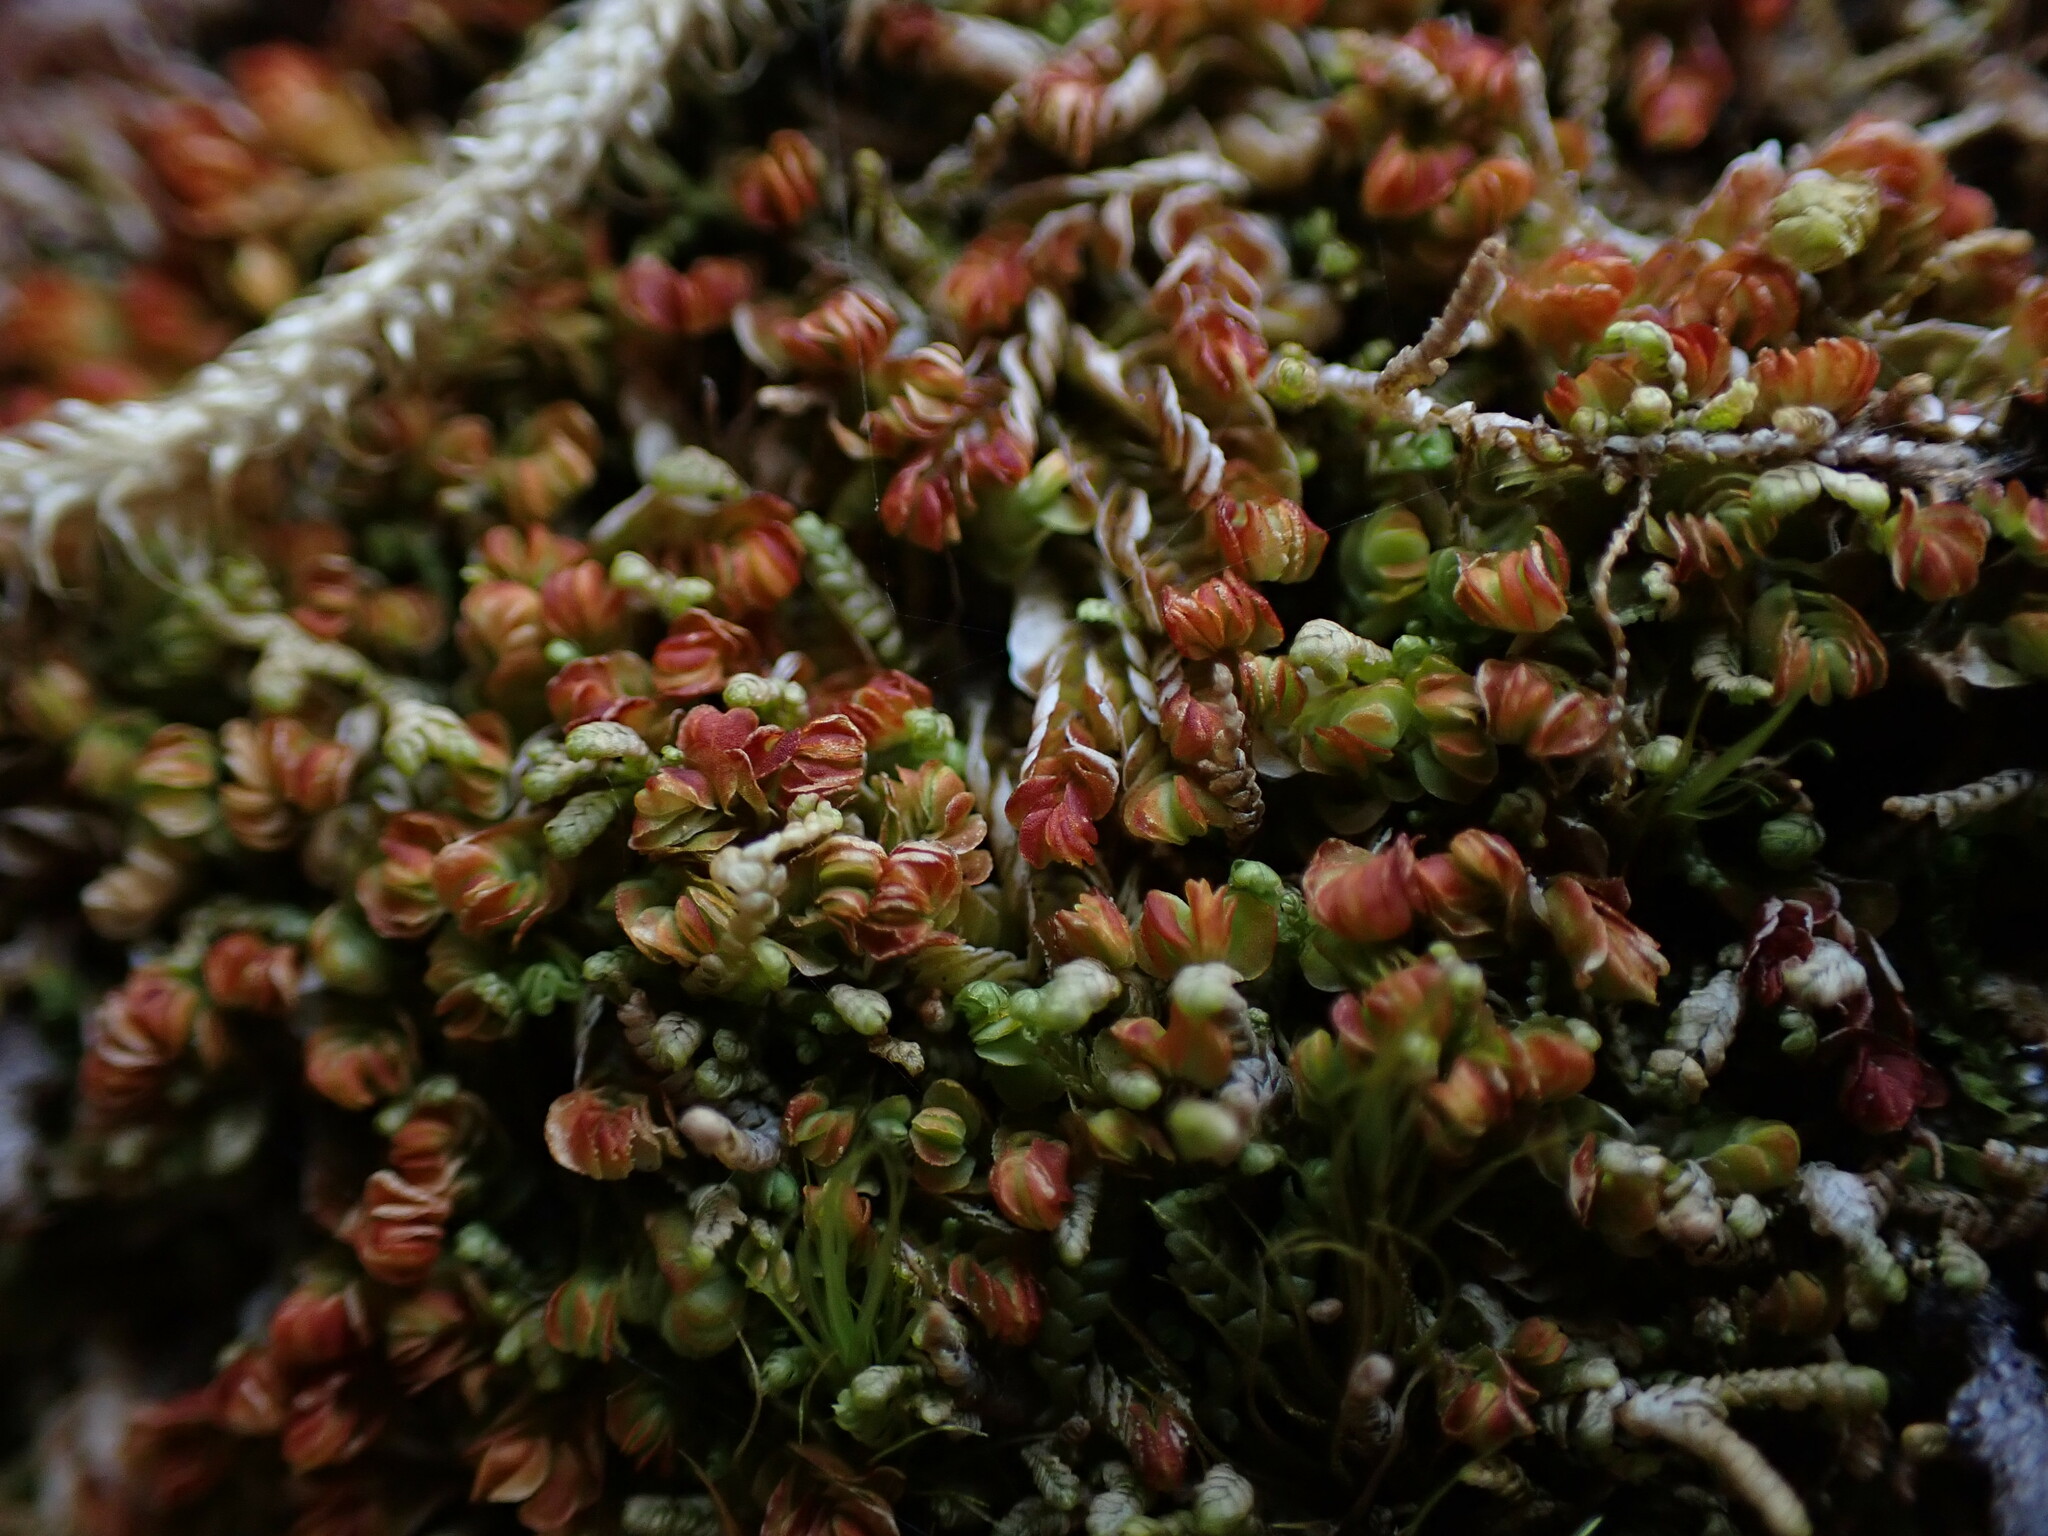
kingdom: Plantae
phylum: Marchantiophyta
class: Jungermanniopsida
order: Jungermanniales
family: Myliaceae
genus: Mylia
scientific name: Mylia taylorii
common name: Taylor s flapwort
